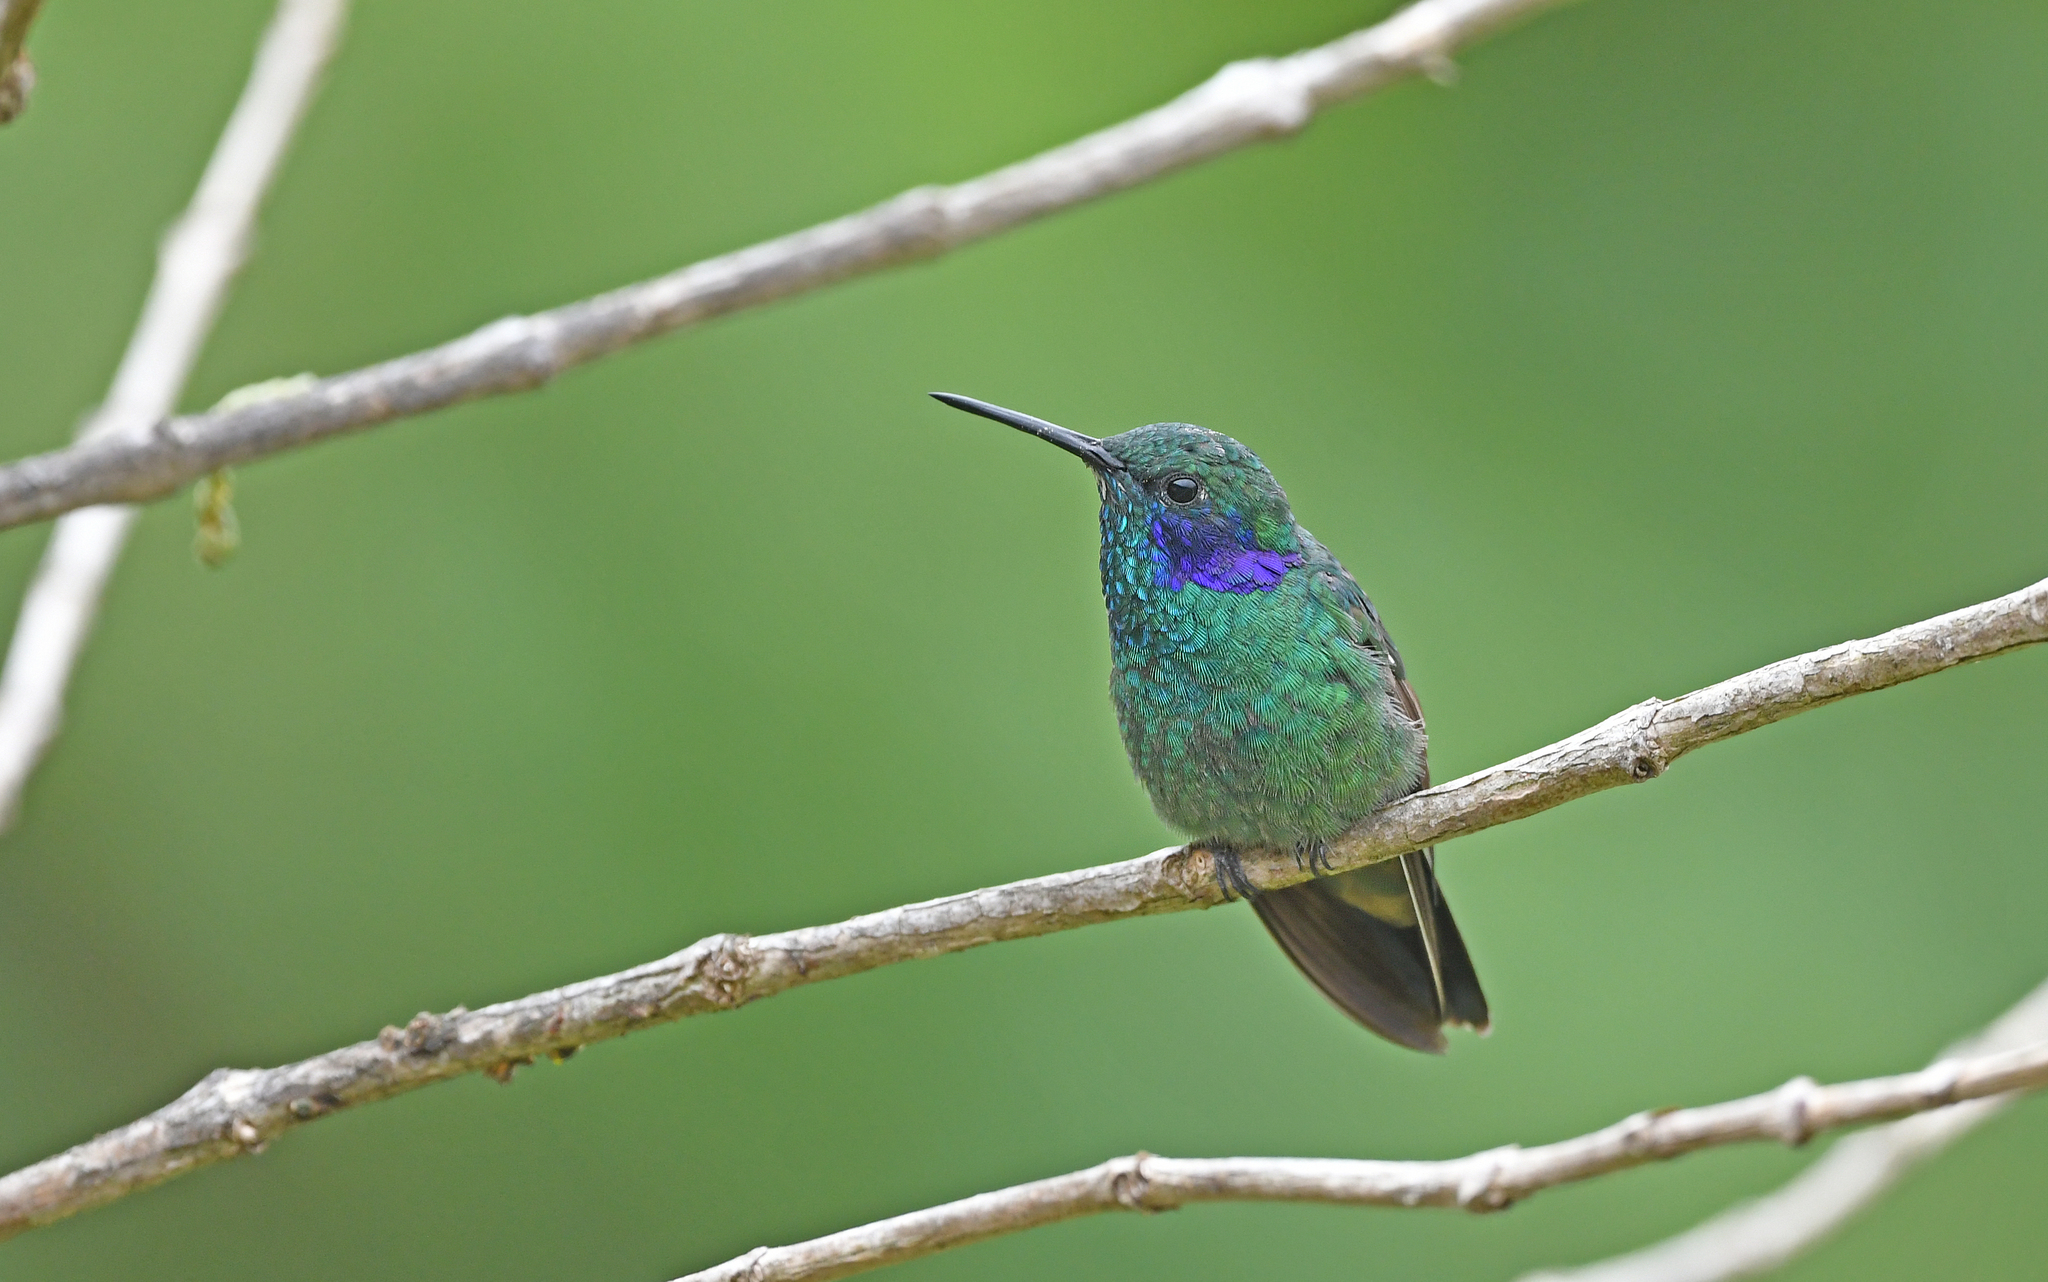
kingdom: Animalia
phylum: Chordata
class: Aves
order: Apodiformes
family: Trochilidae
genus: Colibri
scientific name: Colibri cyanotus
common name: Lesser violetear
